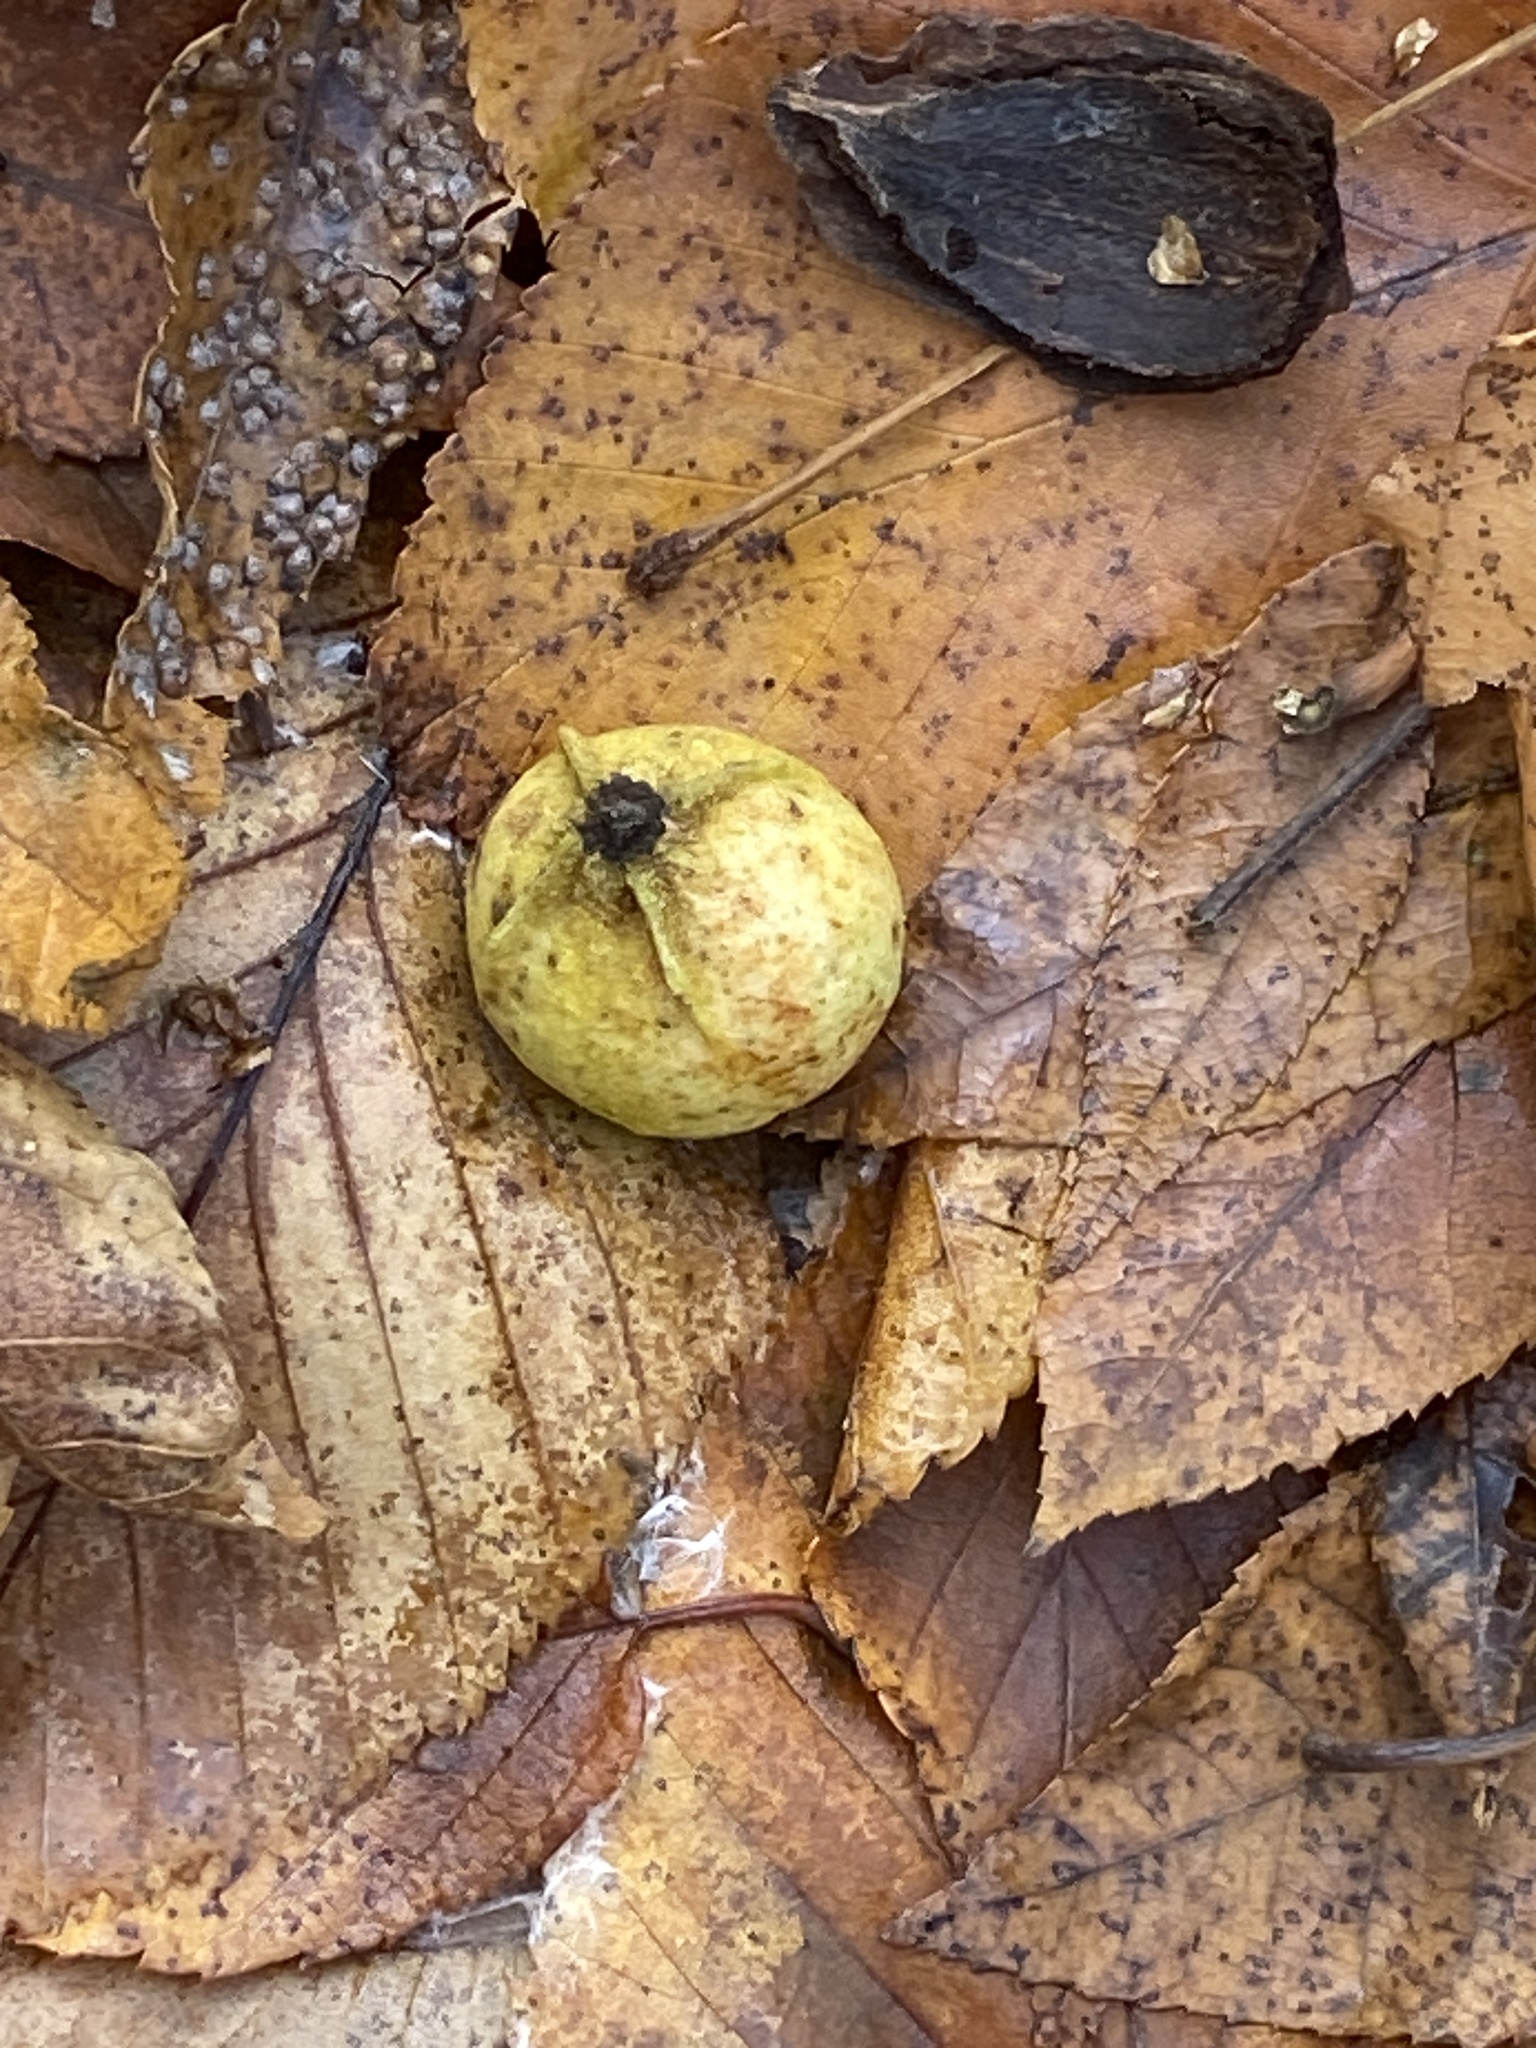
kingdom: Plantae
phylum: Tracheophyta
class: Magnoliopsida
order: Fagales
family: Juglandaceae
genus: Carya
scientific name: Carya cordiformis
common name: Bitternut hickory
